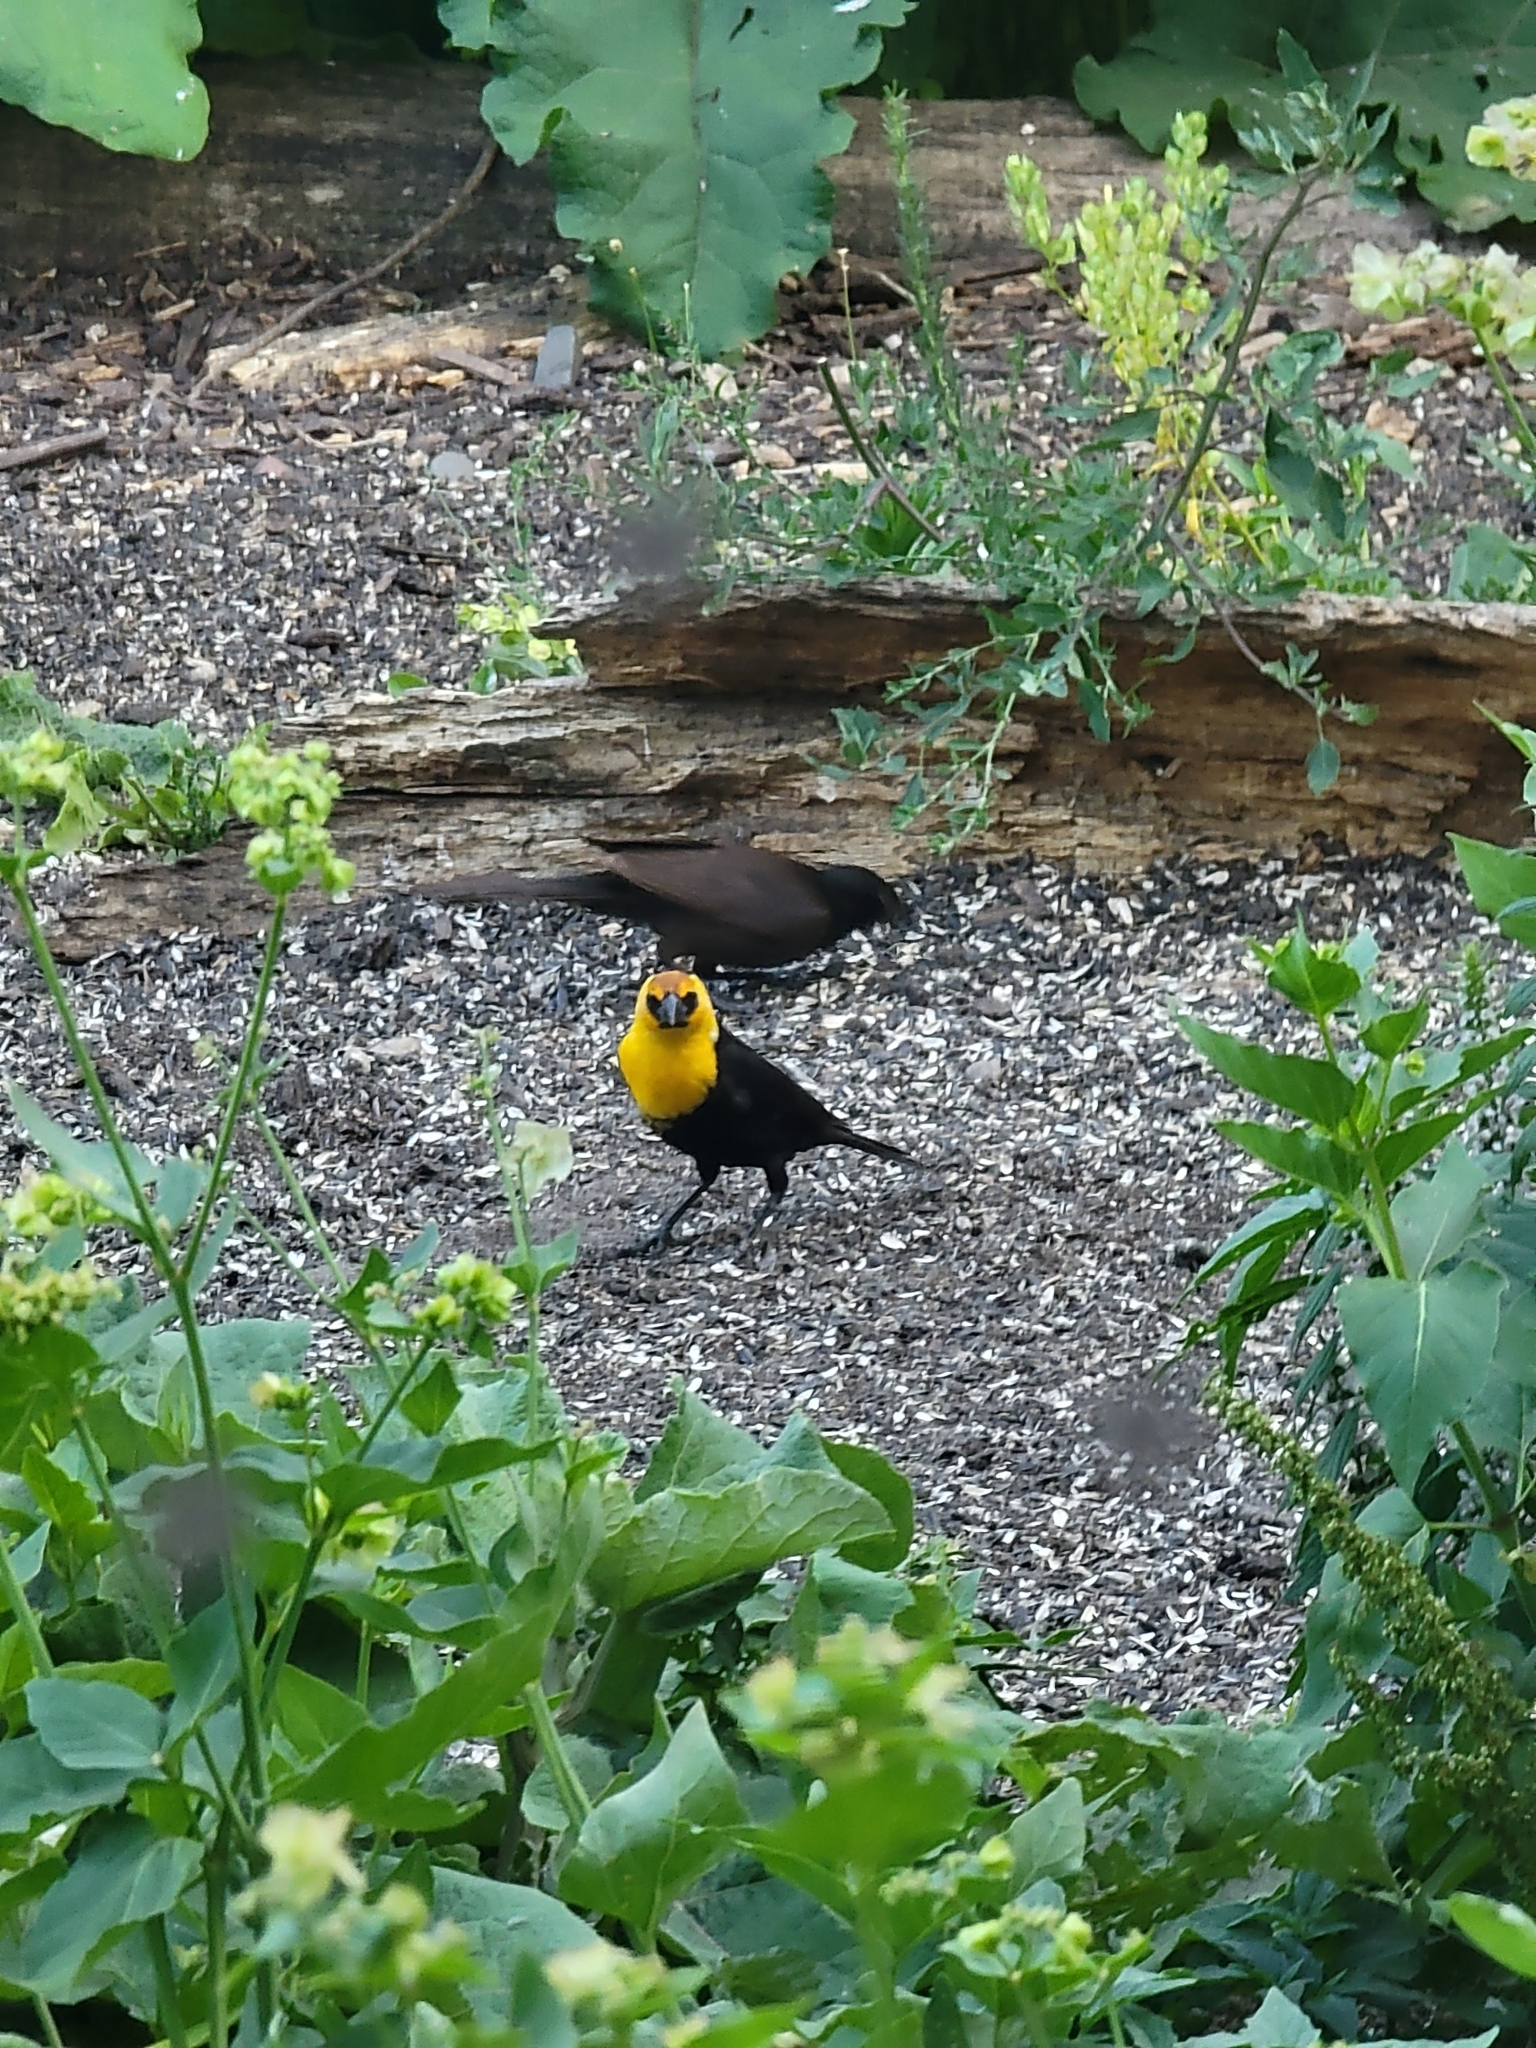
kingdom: Animalia
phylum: Chordata
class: Aves
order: Passeriformes
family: Icteridae
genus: Xanthocephalus
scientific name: Xanthocephalus xanthocephalus
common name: Yellow-headed blackbird
